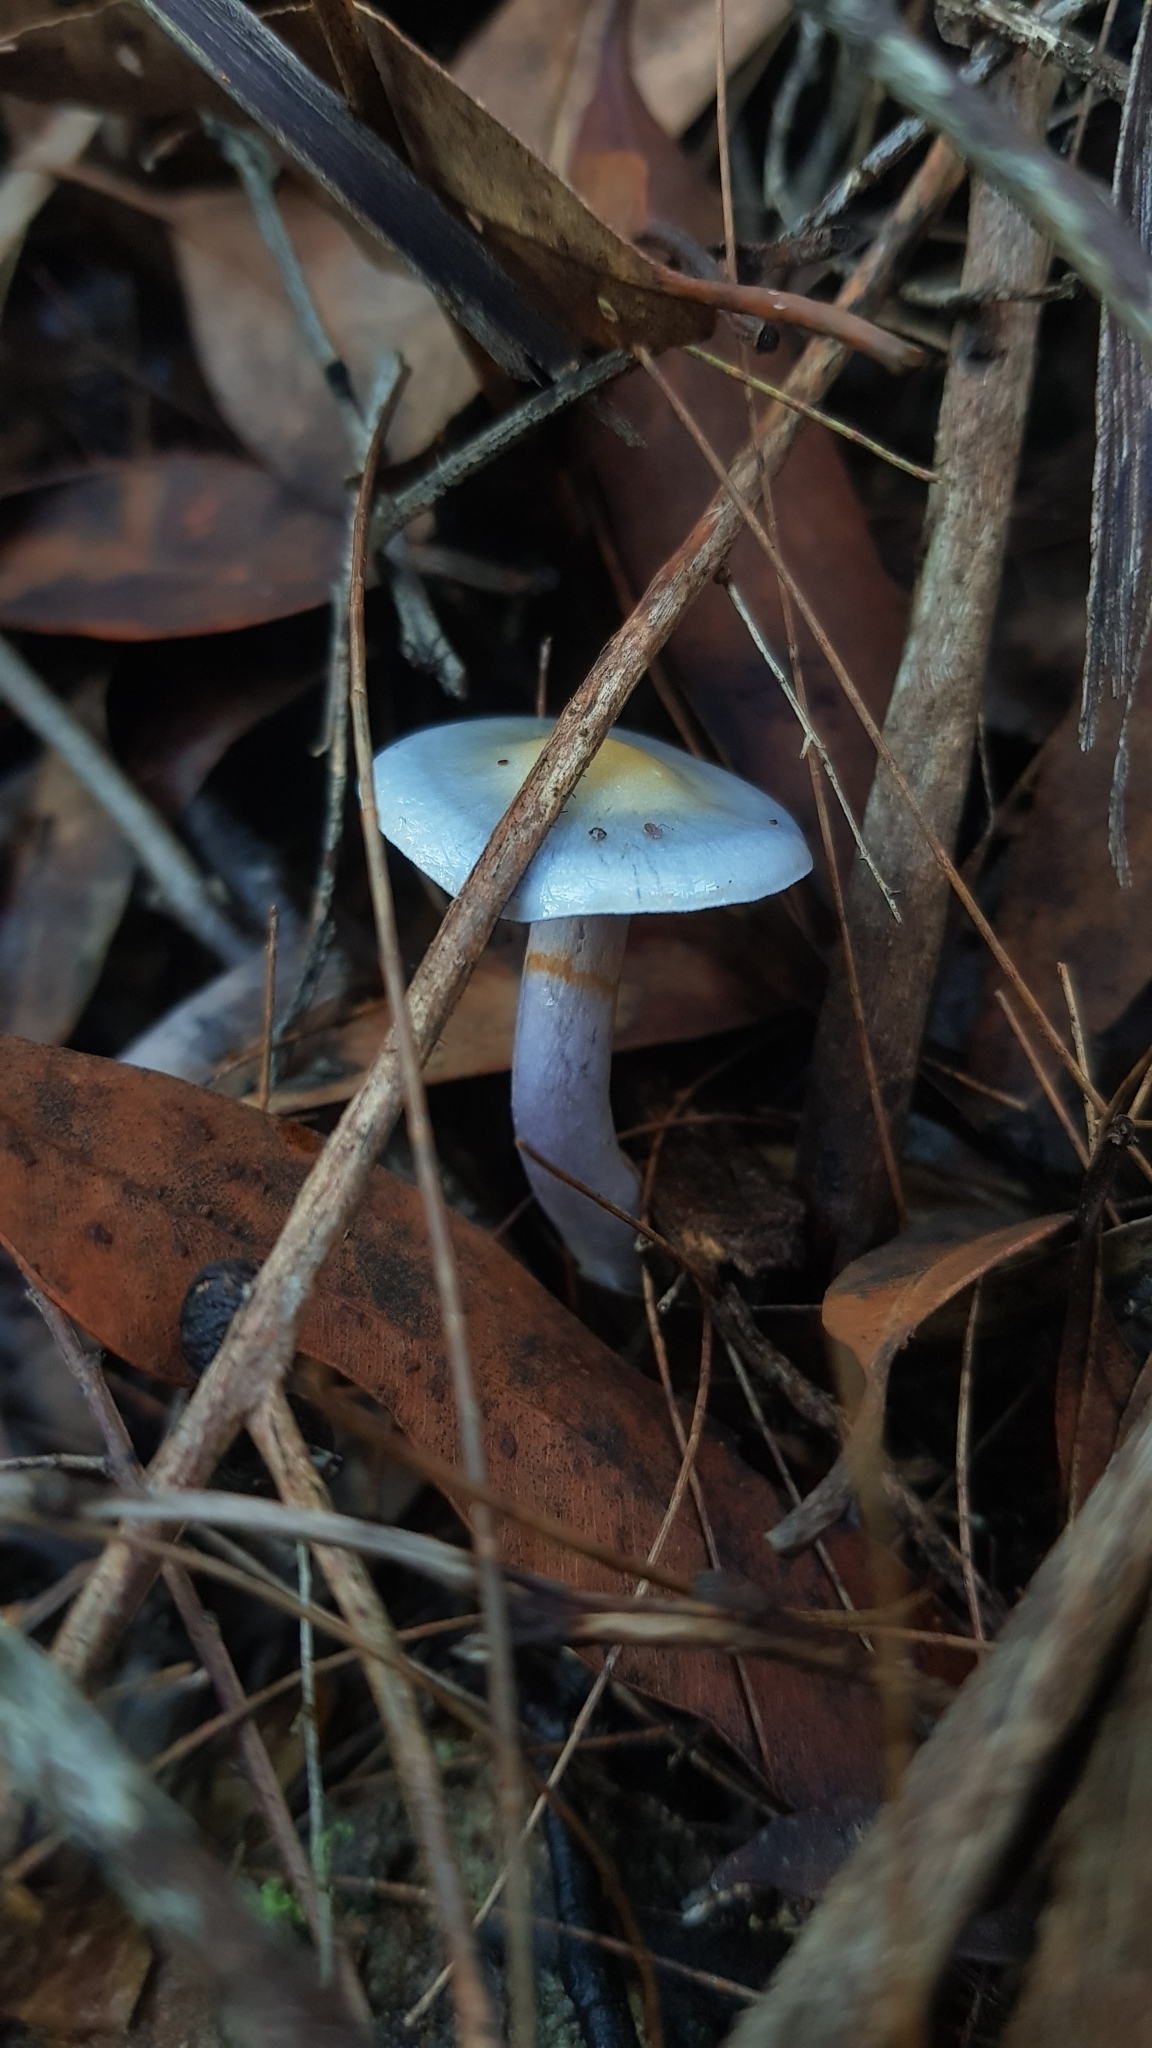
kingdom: Fungi
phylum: Basidiomycota
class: Agaricomycetes
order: Agaricales
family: Cortinariaceae
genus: Cortinarius
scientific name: Cortinarius rotundisporus
